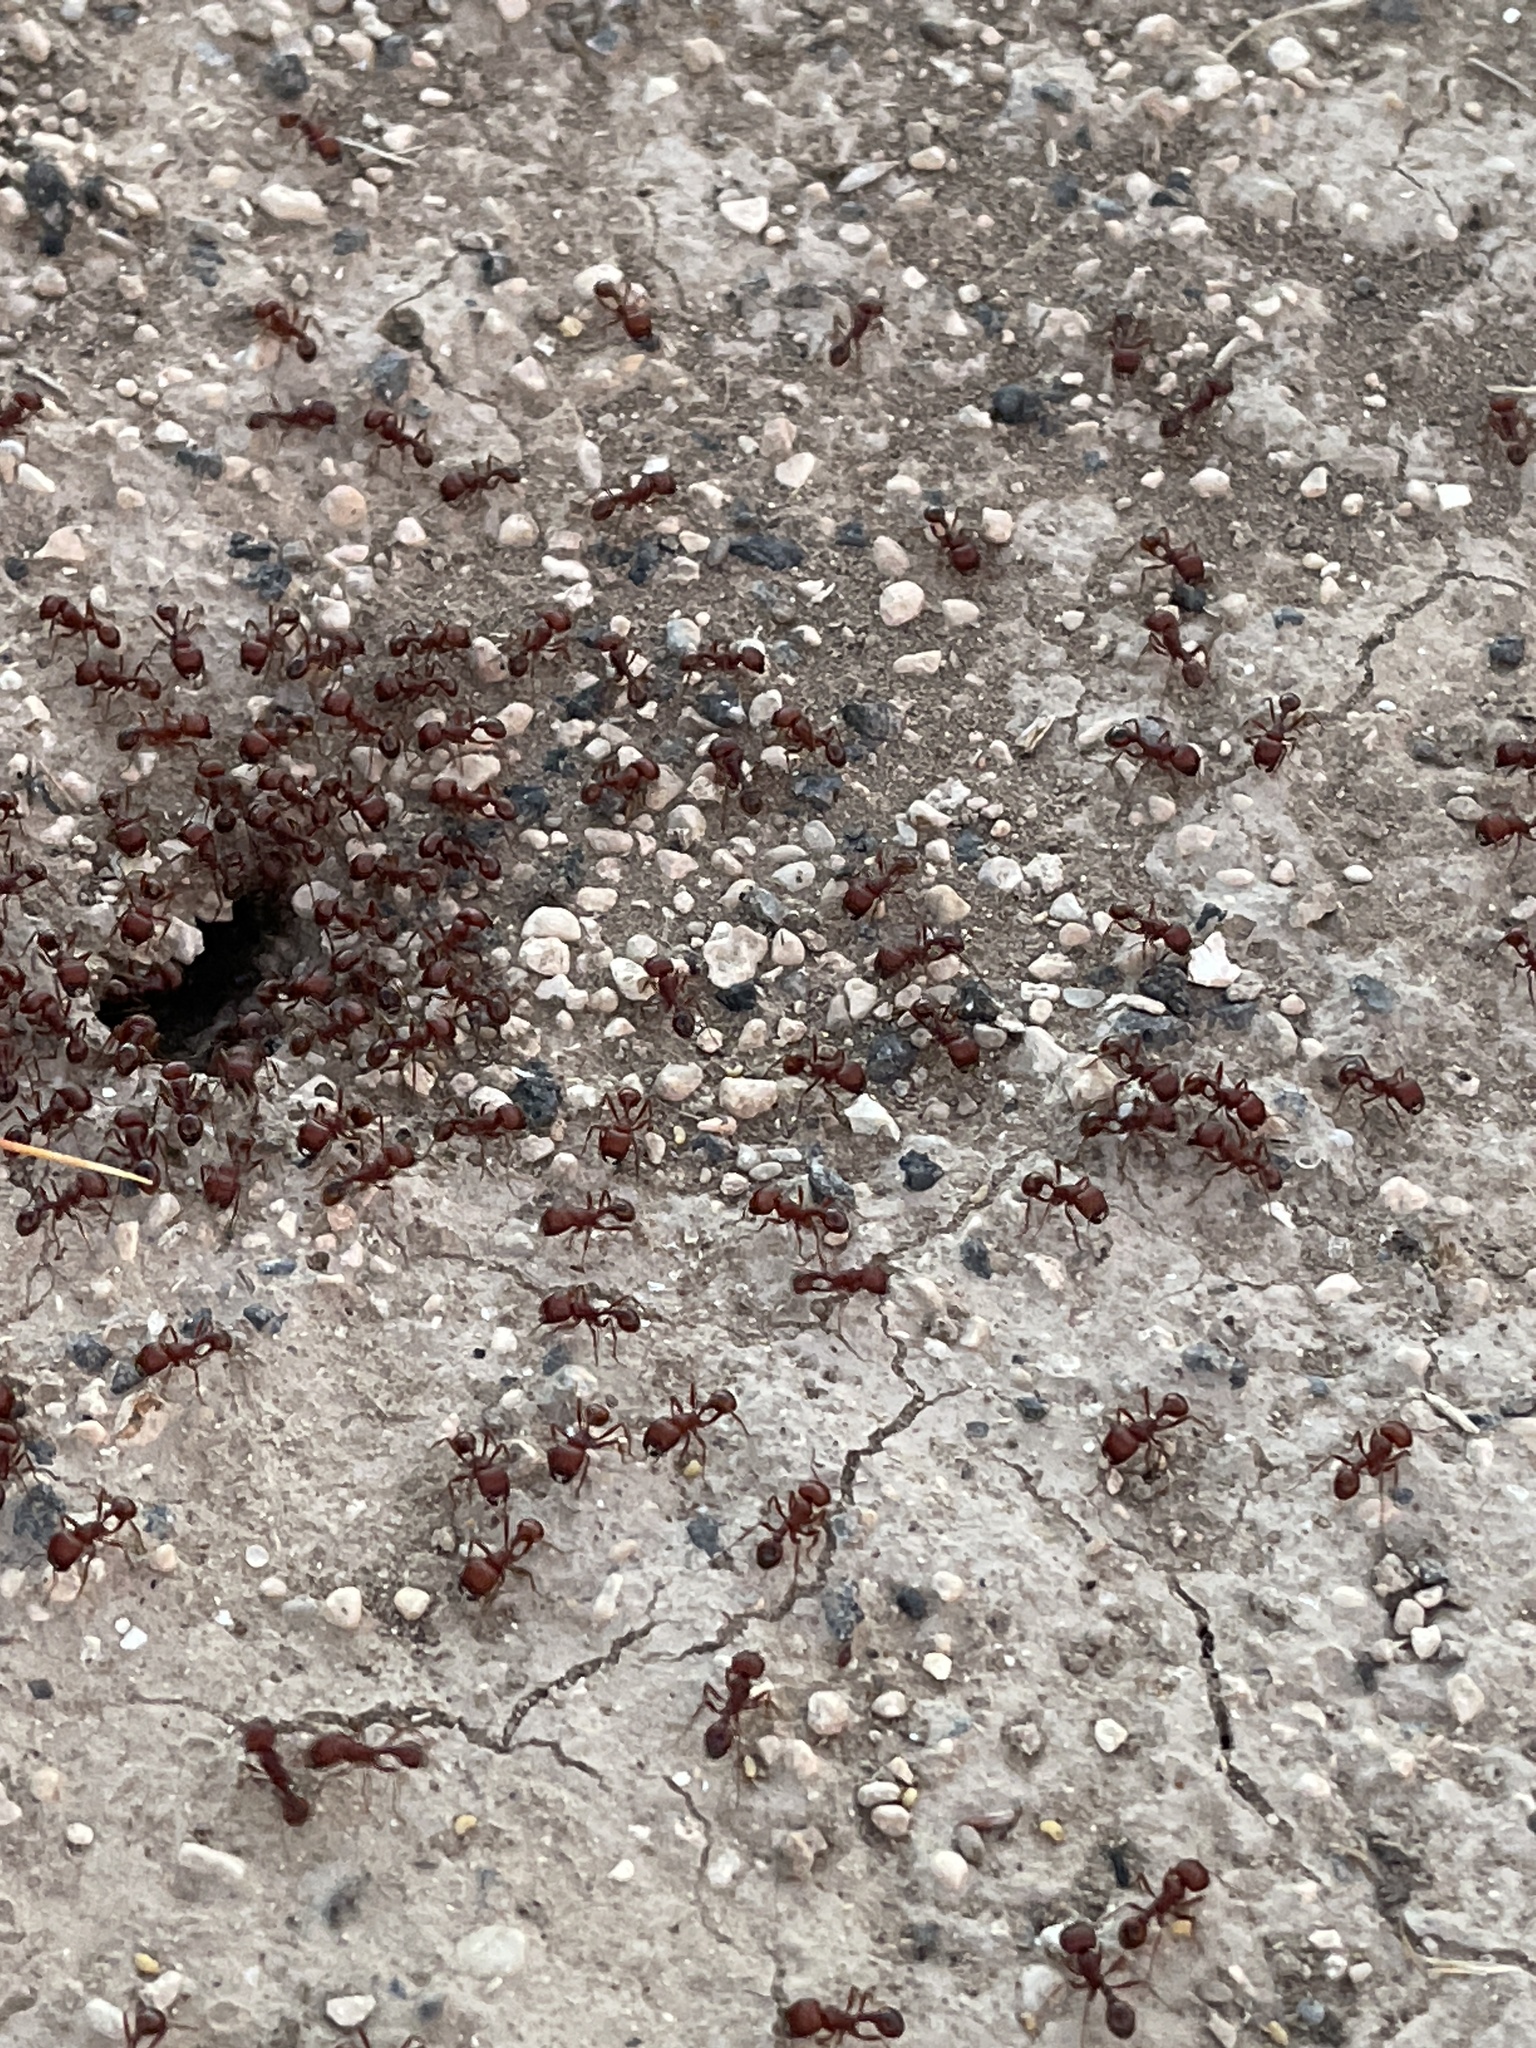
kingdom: Animalia
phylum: Arthropoda
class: Insecta
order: Hymenoptera
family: Formicidae
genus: Pogonomyrmex
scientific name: Pogonomyrmex barbatus
